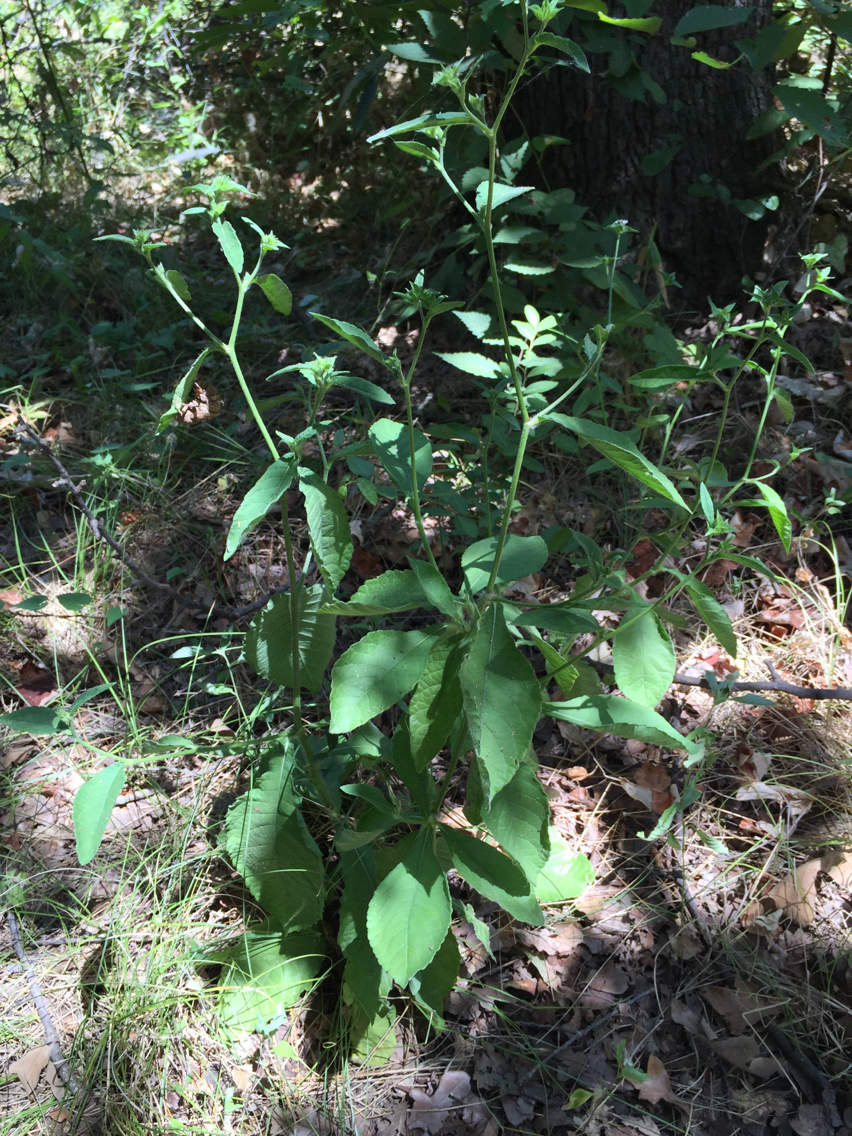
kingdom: Plantae
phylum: Tracheophyta
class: Magnoliopsida
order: Asterales
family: Asteraceae
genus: Elephantopus
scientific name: Elephantopus carolinianus
